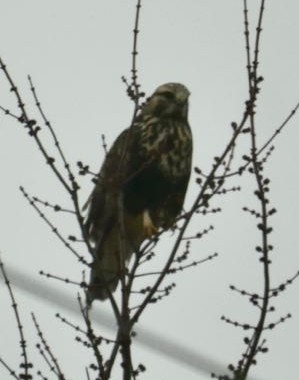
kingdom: Animalia
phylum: Chordata
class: Aves
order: Accipitriformes
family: Accipitridae
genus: Buteo
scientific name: Buteo lagopus
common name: Rough-legged buzzard
